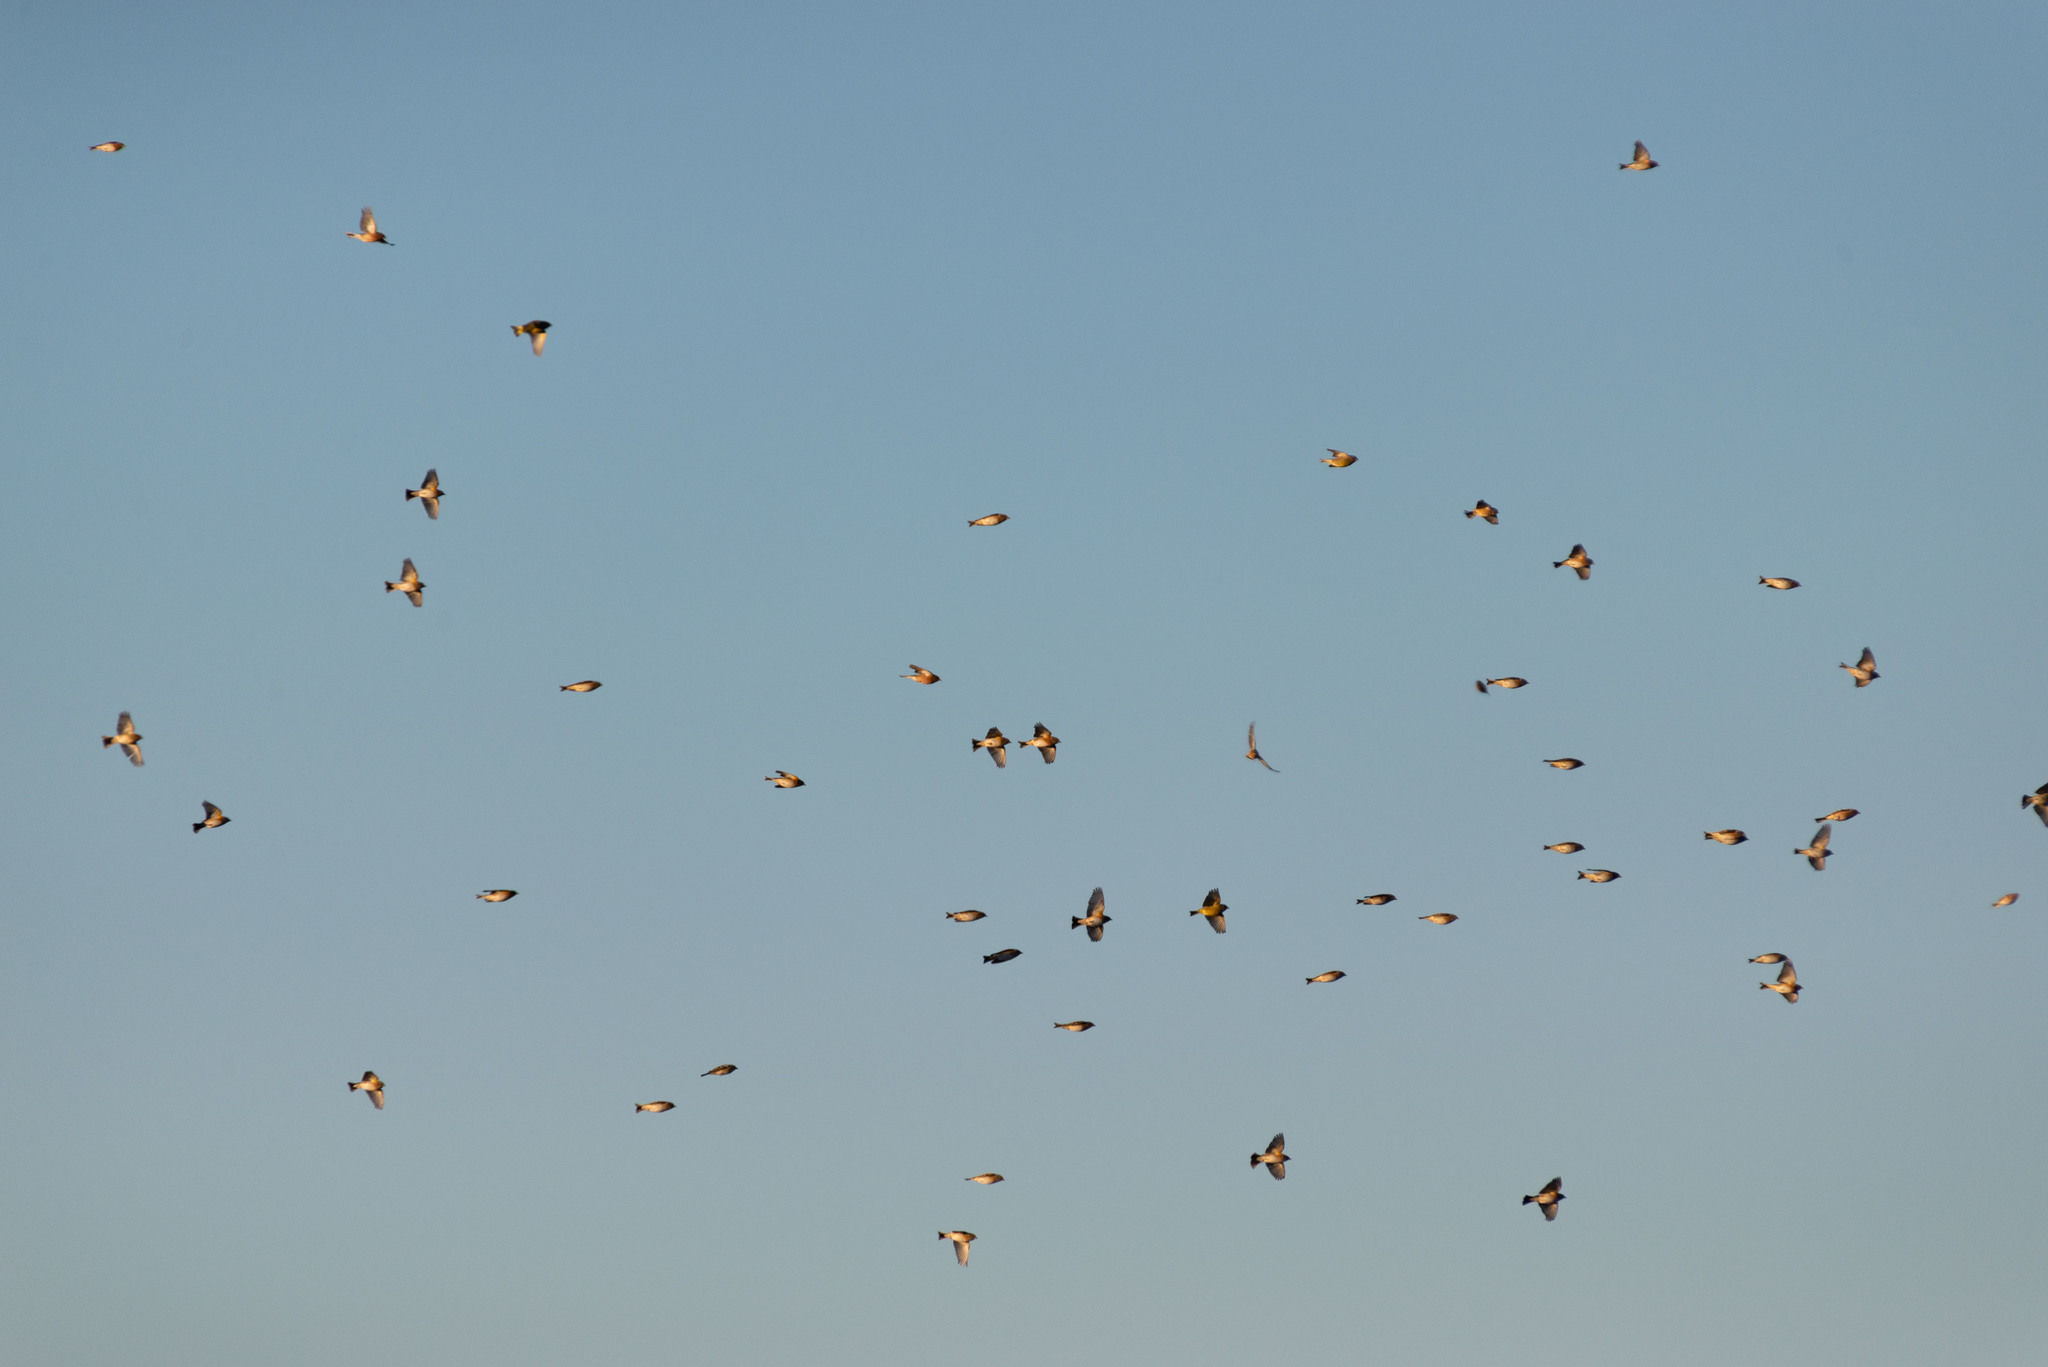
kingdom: Animalia
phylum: Chordata
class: Aves
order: Passeriformes
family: Fringillidae
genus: Fringilla
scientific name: Fringilla montifringilla
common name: Brambling
